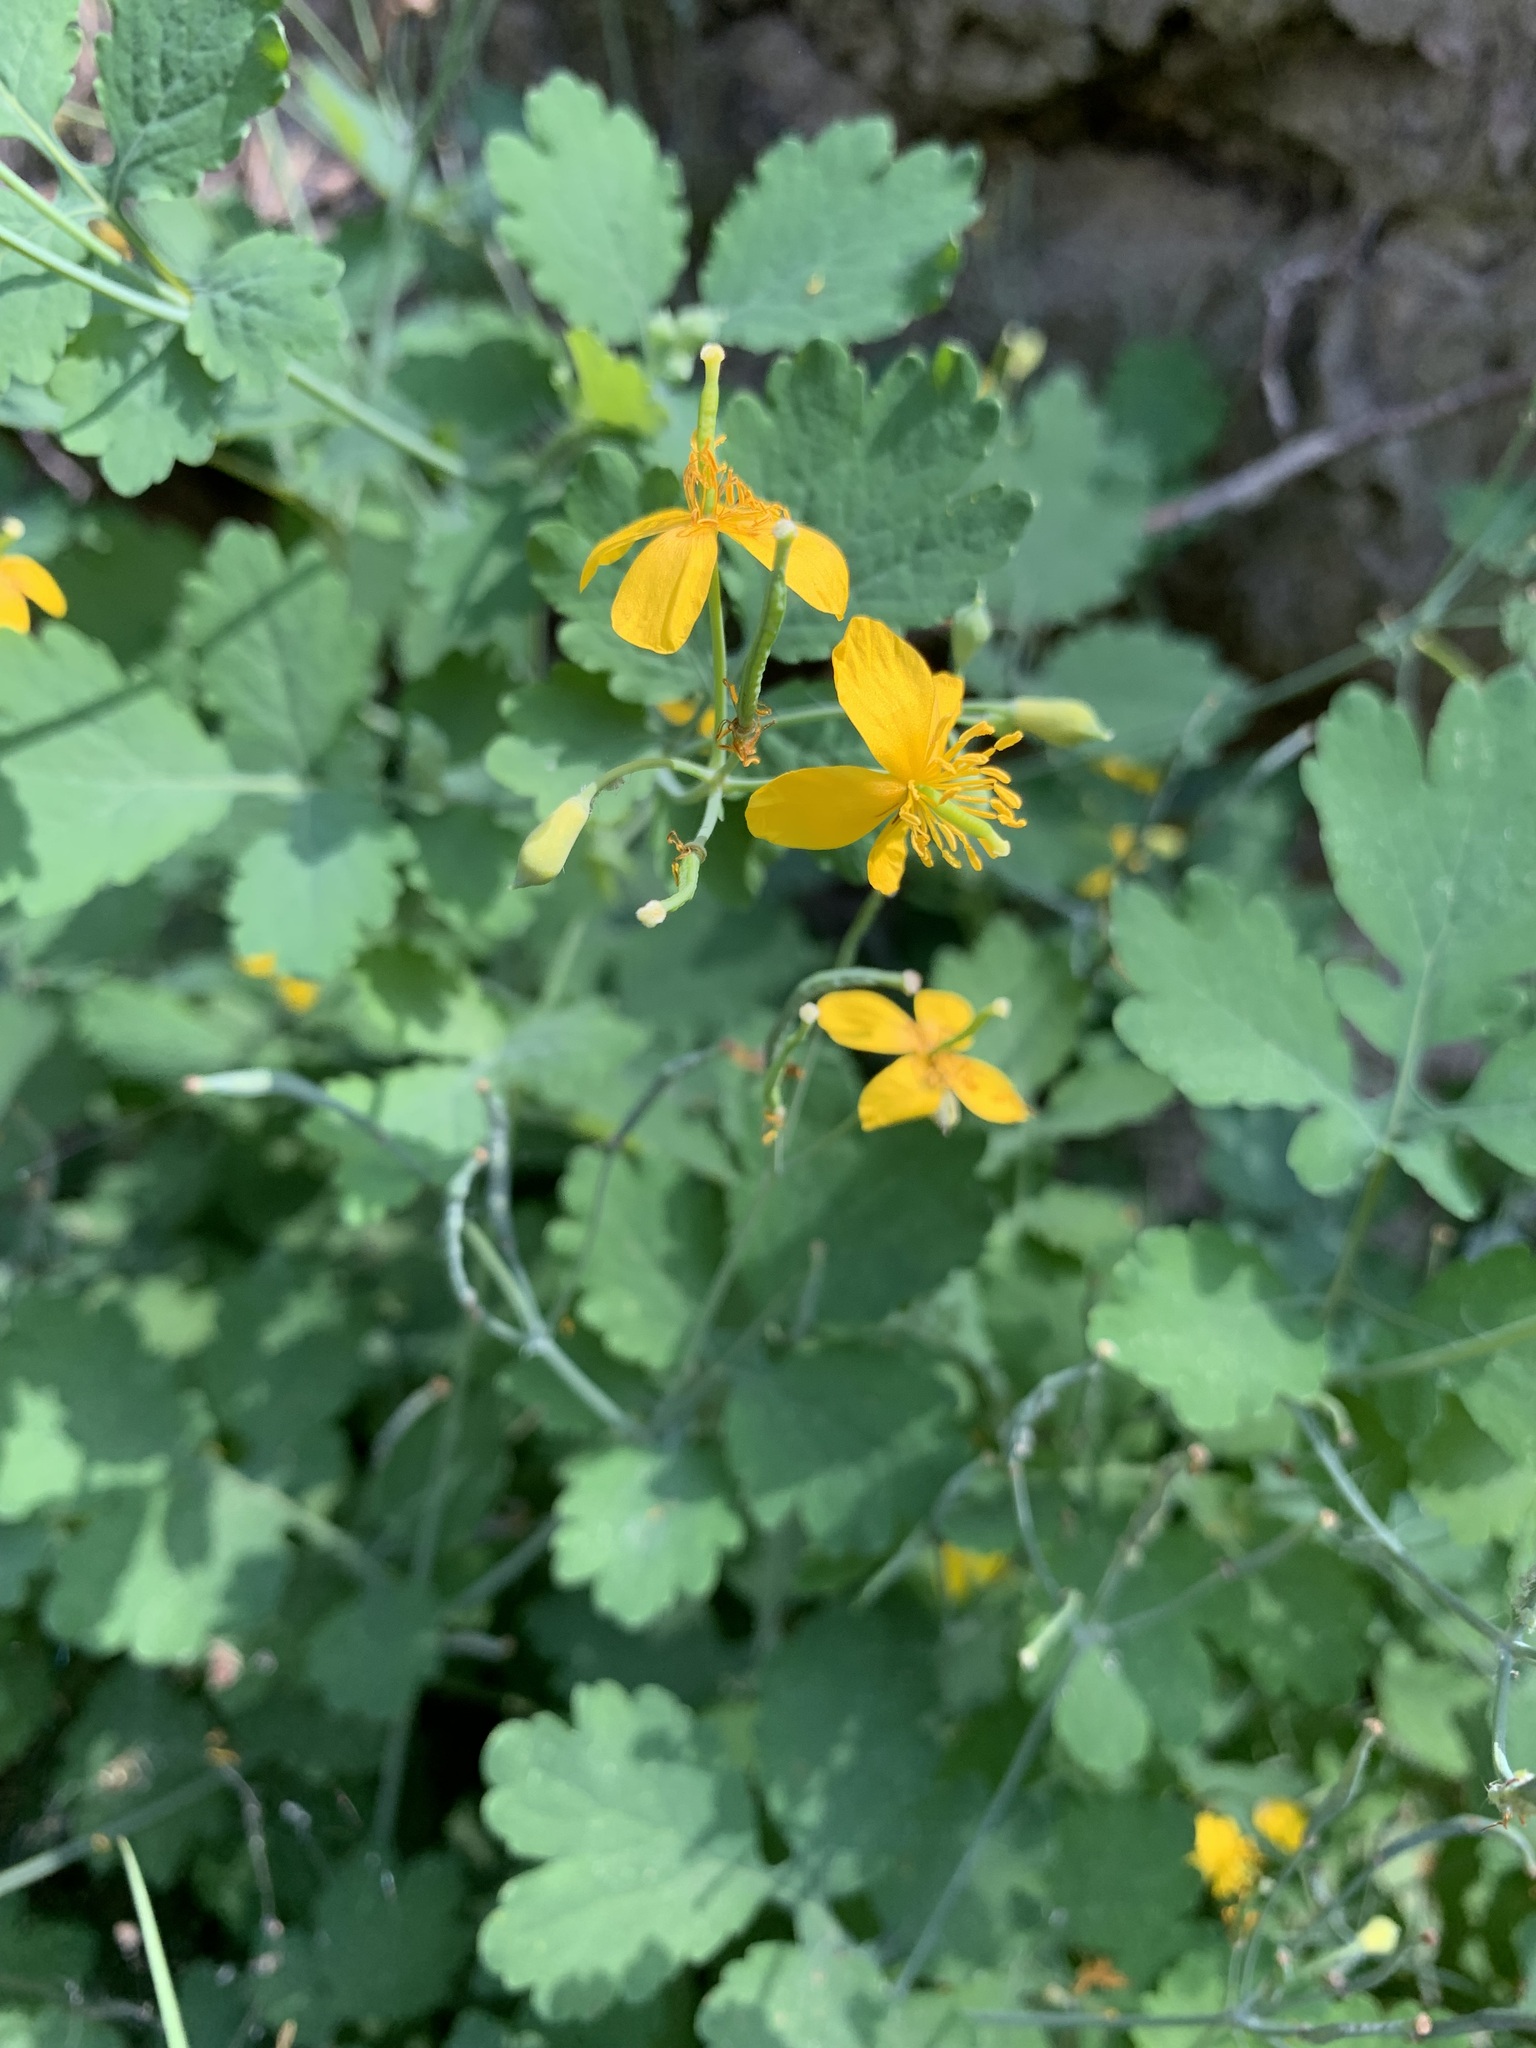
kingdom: Plantae
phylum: Tracheophyta
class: Magnoliopsida
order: Ranunculales
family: Papaveraceae
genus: Chelidonium
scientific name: Chelidonium majus
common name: Greater celandine
